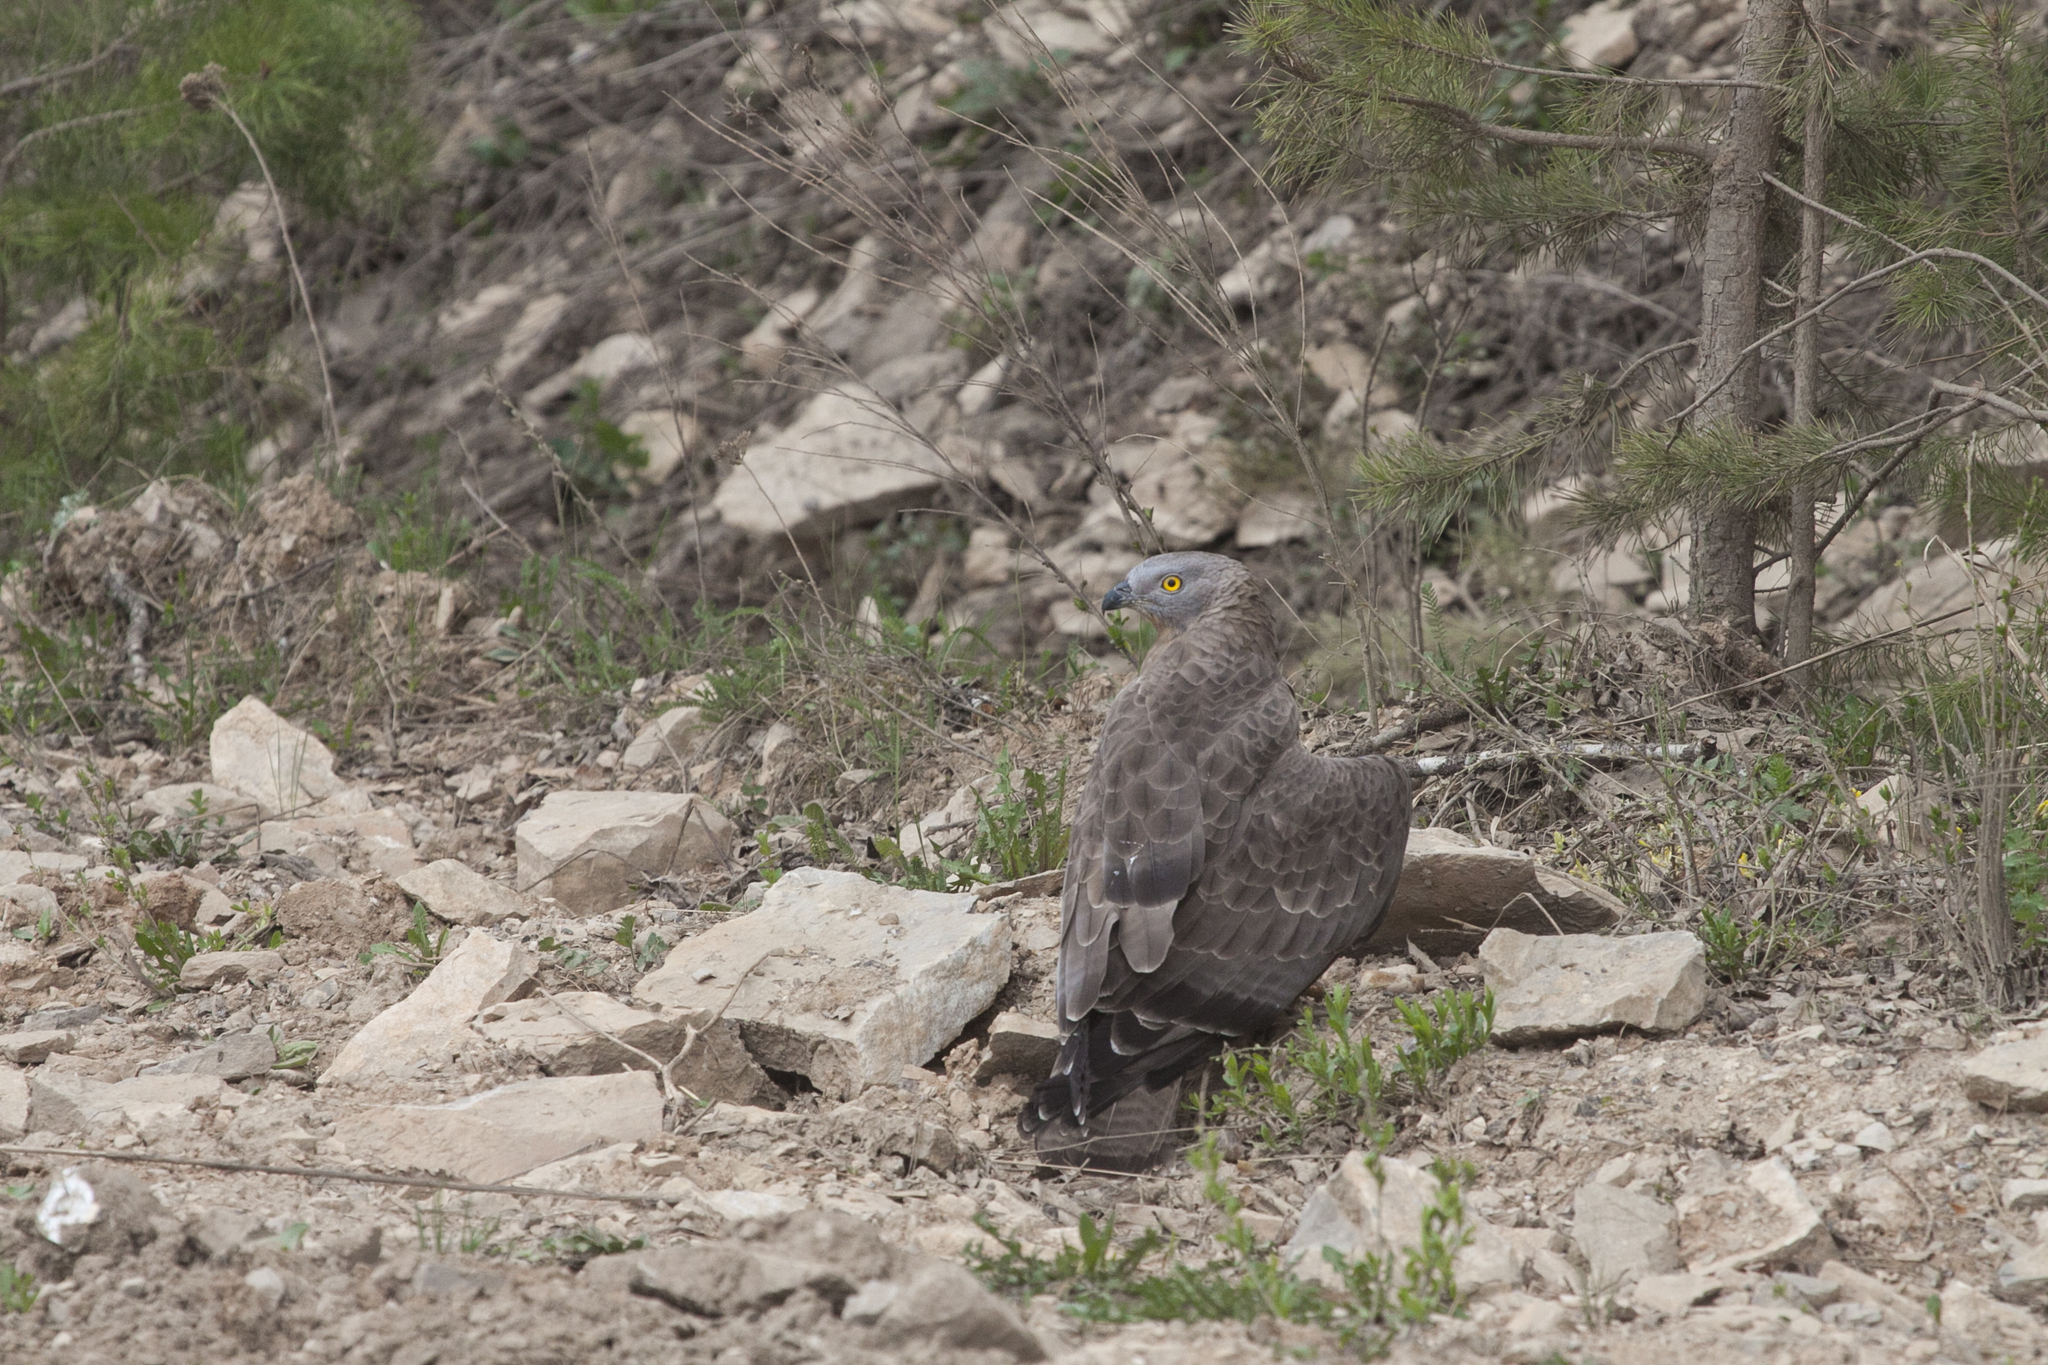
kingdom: Animalia
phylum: Chordata
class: Aves
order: Accipitriformes
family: Accipitridae
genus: Pernis
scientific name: Pernis apivorus
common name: European honey buzzard
